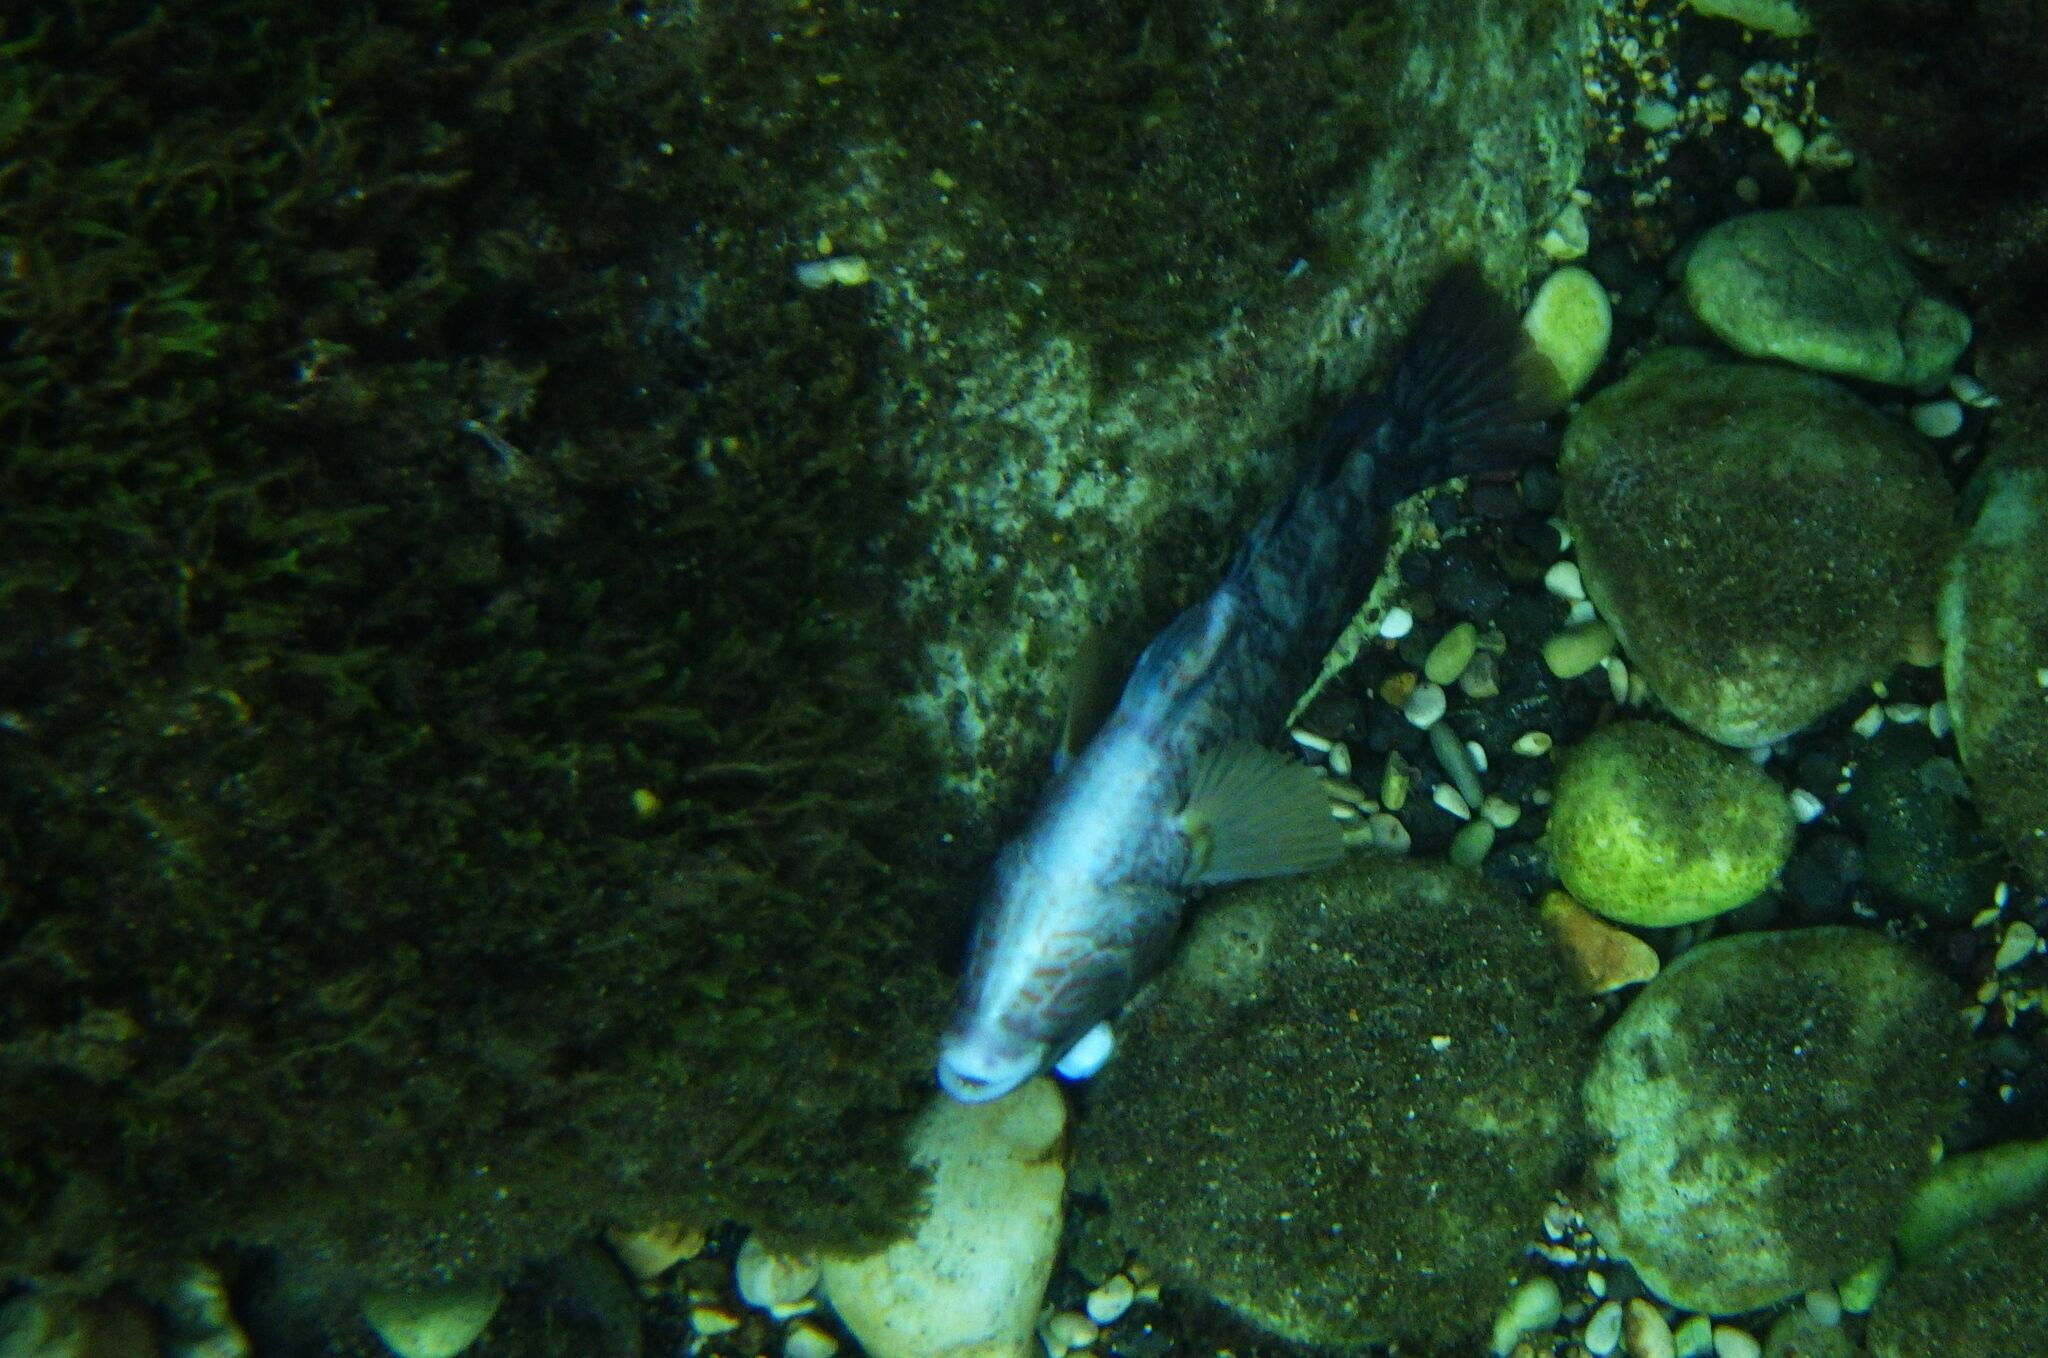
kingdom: Animalia
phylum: Chordata
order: Perciformes
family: Labridae
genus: Symphodus
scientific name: Symphodus melops
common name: Corkwing
